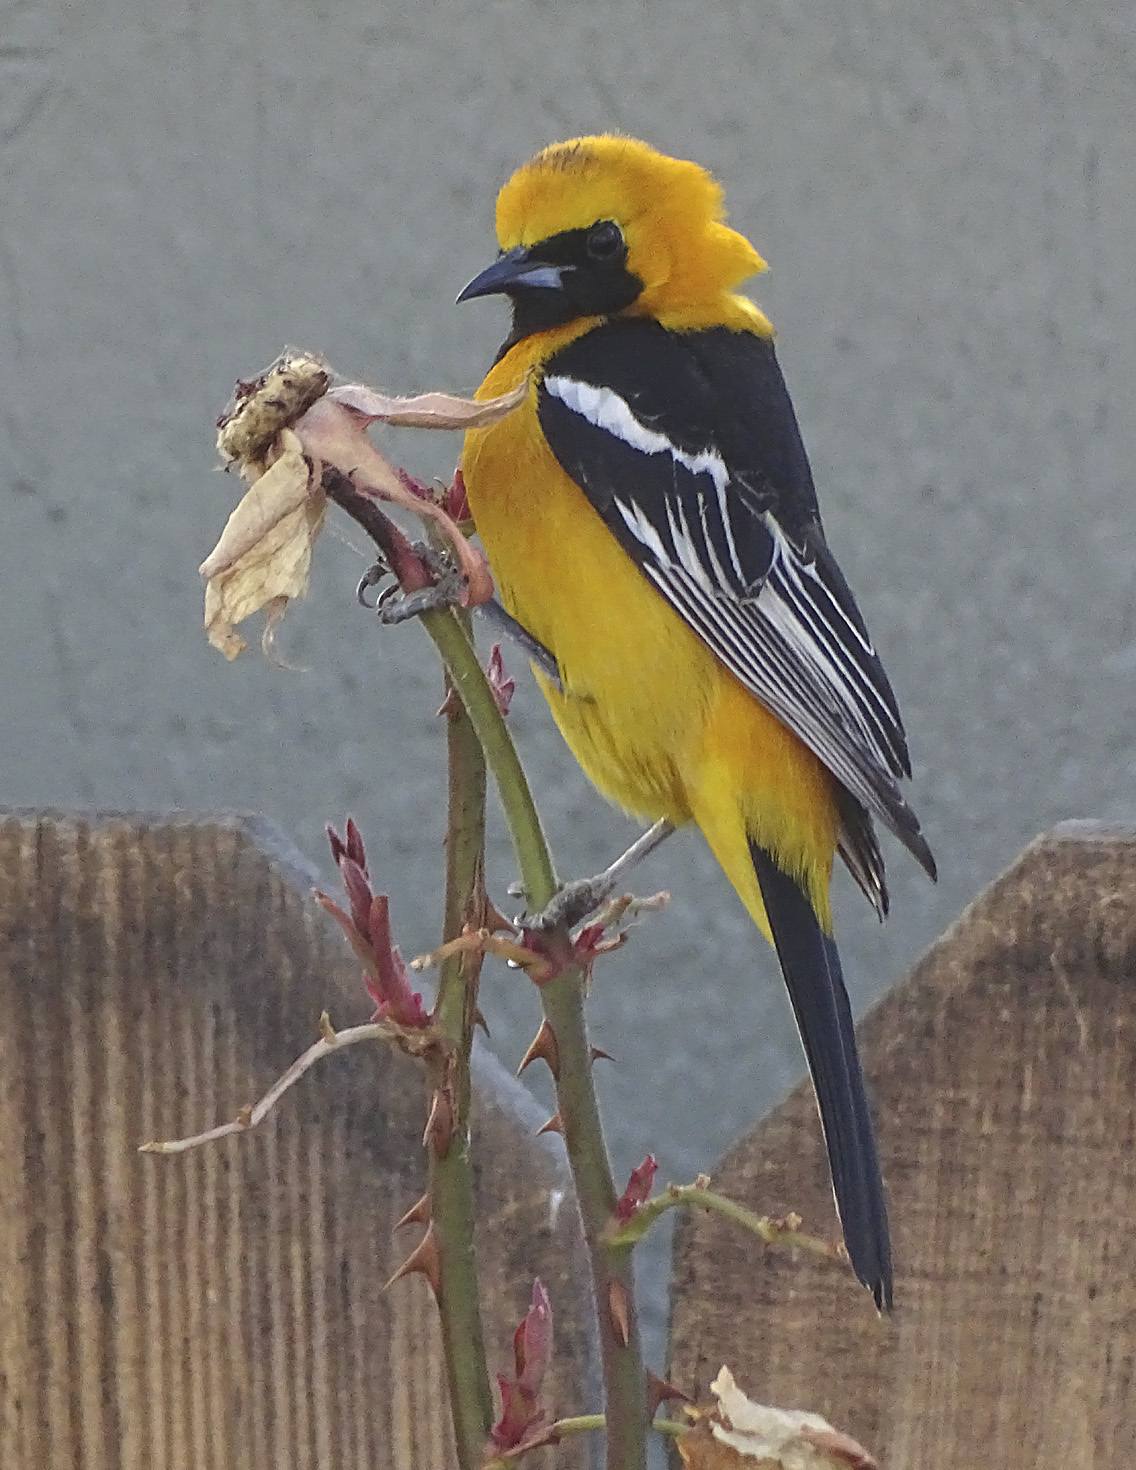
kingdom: Animalia
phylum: Chordata
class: Aves
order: Passeriformes
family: Icteridae
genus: Icterus
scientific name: Icterus cucullatus
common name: Hooded oriole
